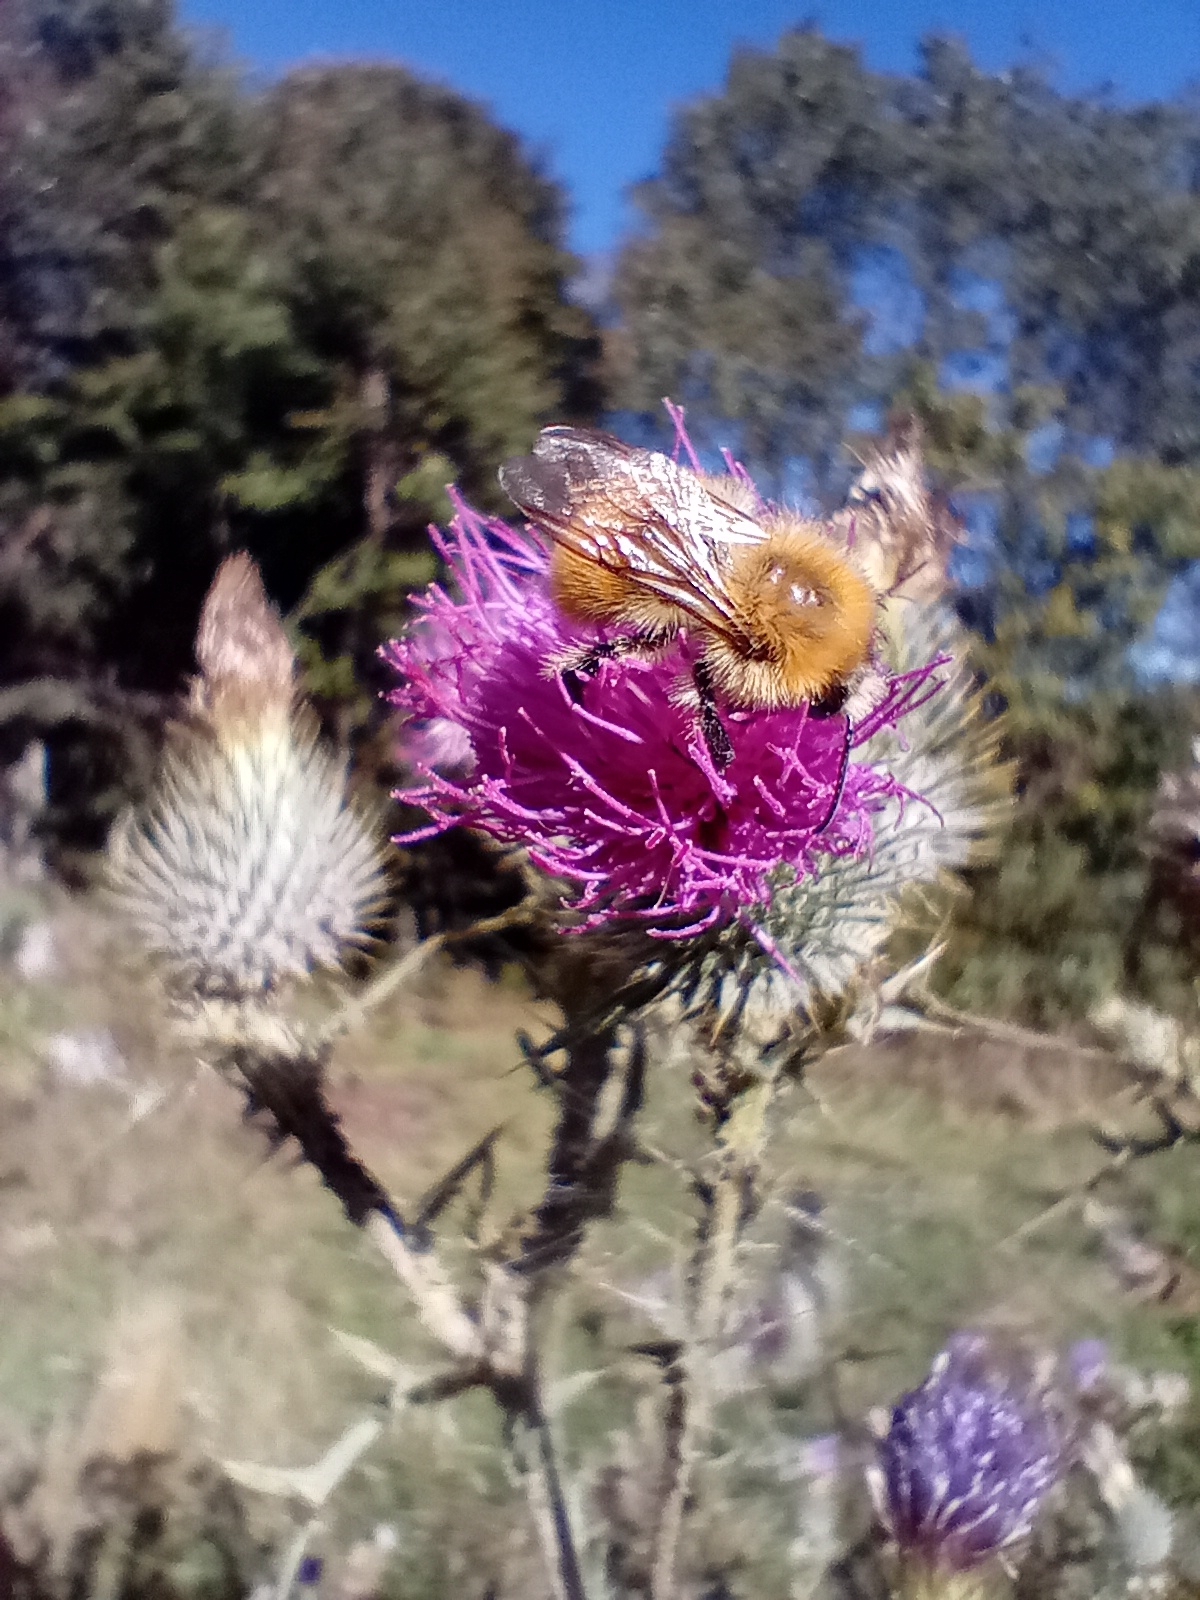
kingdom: Animalia
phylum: Arthropoda
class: Insecta
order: Hymenoptera
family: Apidae
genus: Bombus
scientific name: Bombus pascuorum
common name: Common carder bee
